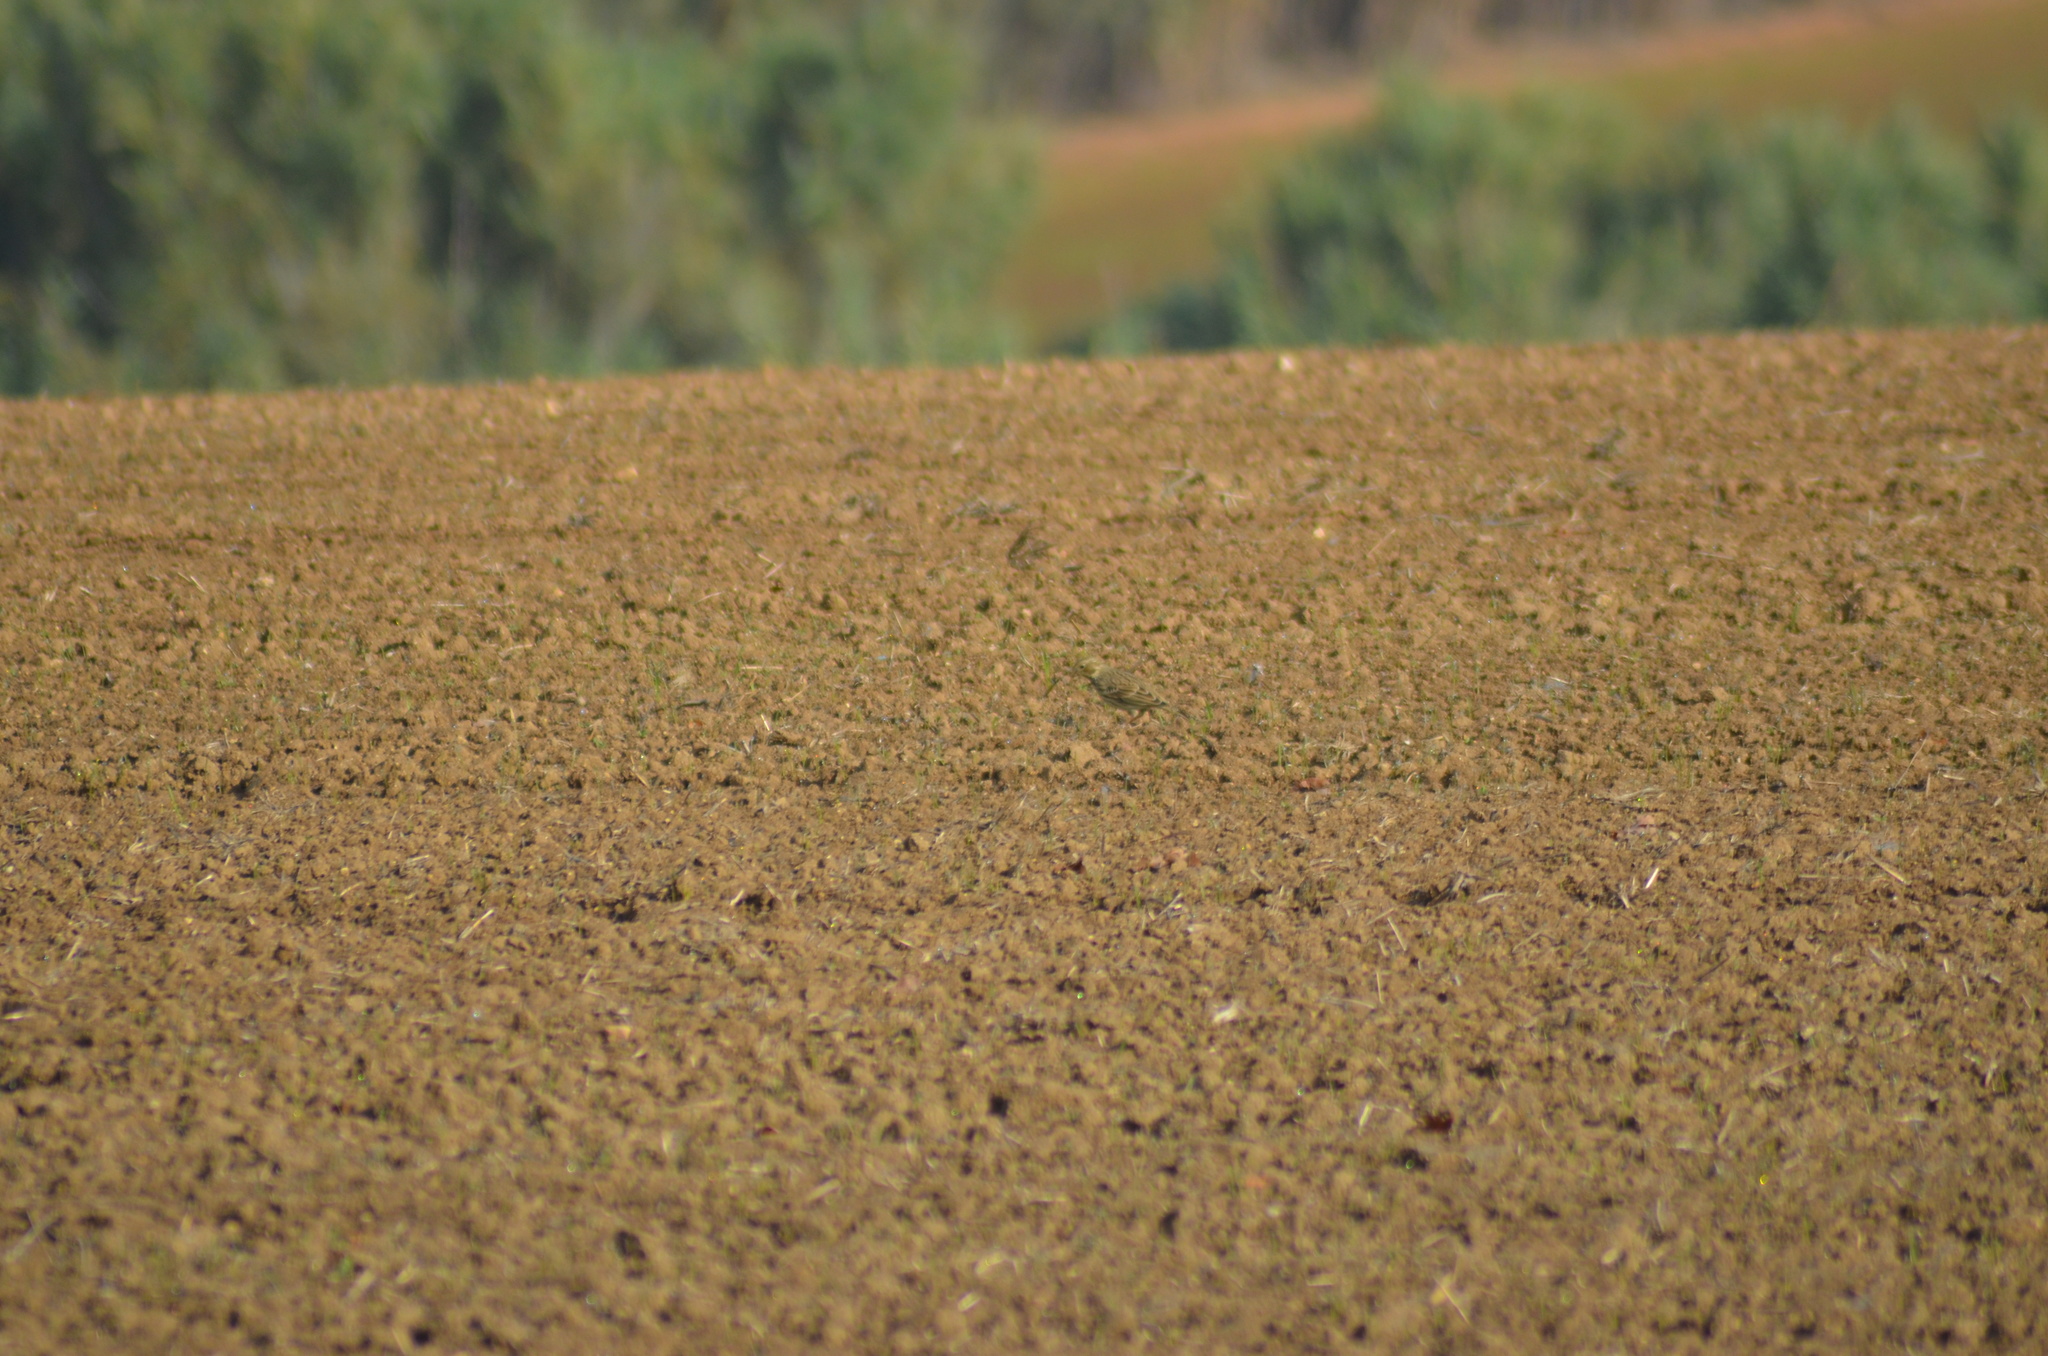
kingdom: Animalia
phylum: Chordata
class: Aves
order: Passeriformes
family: Motacillidae
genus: Anthus
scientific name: Anthus pratensis
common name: Meadow pipit
